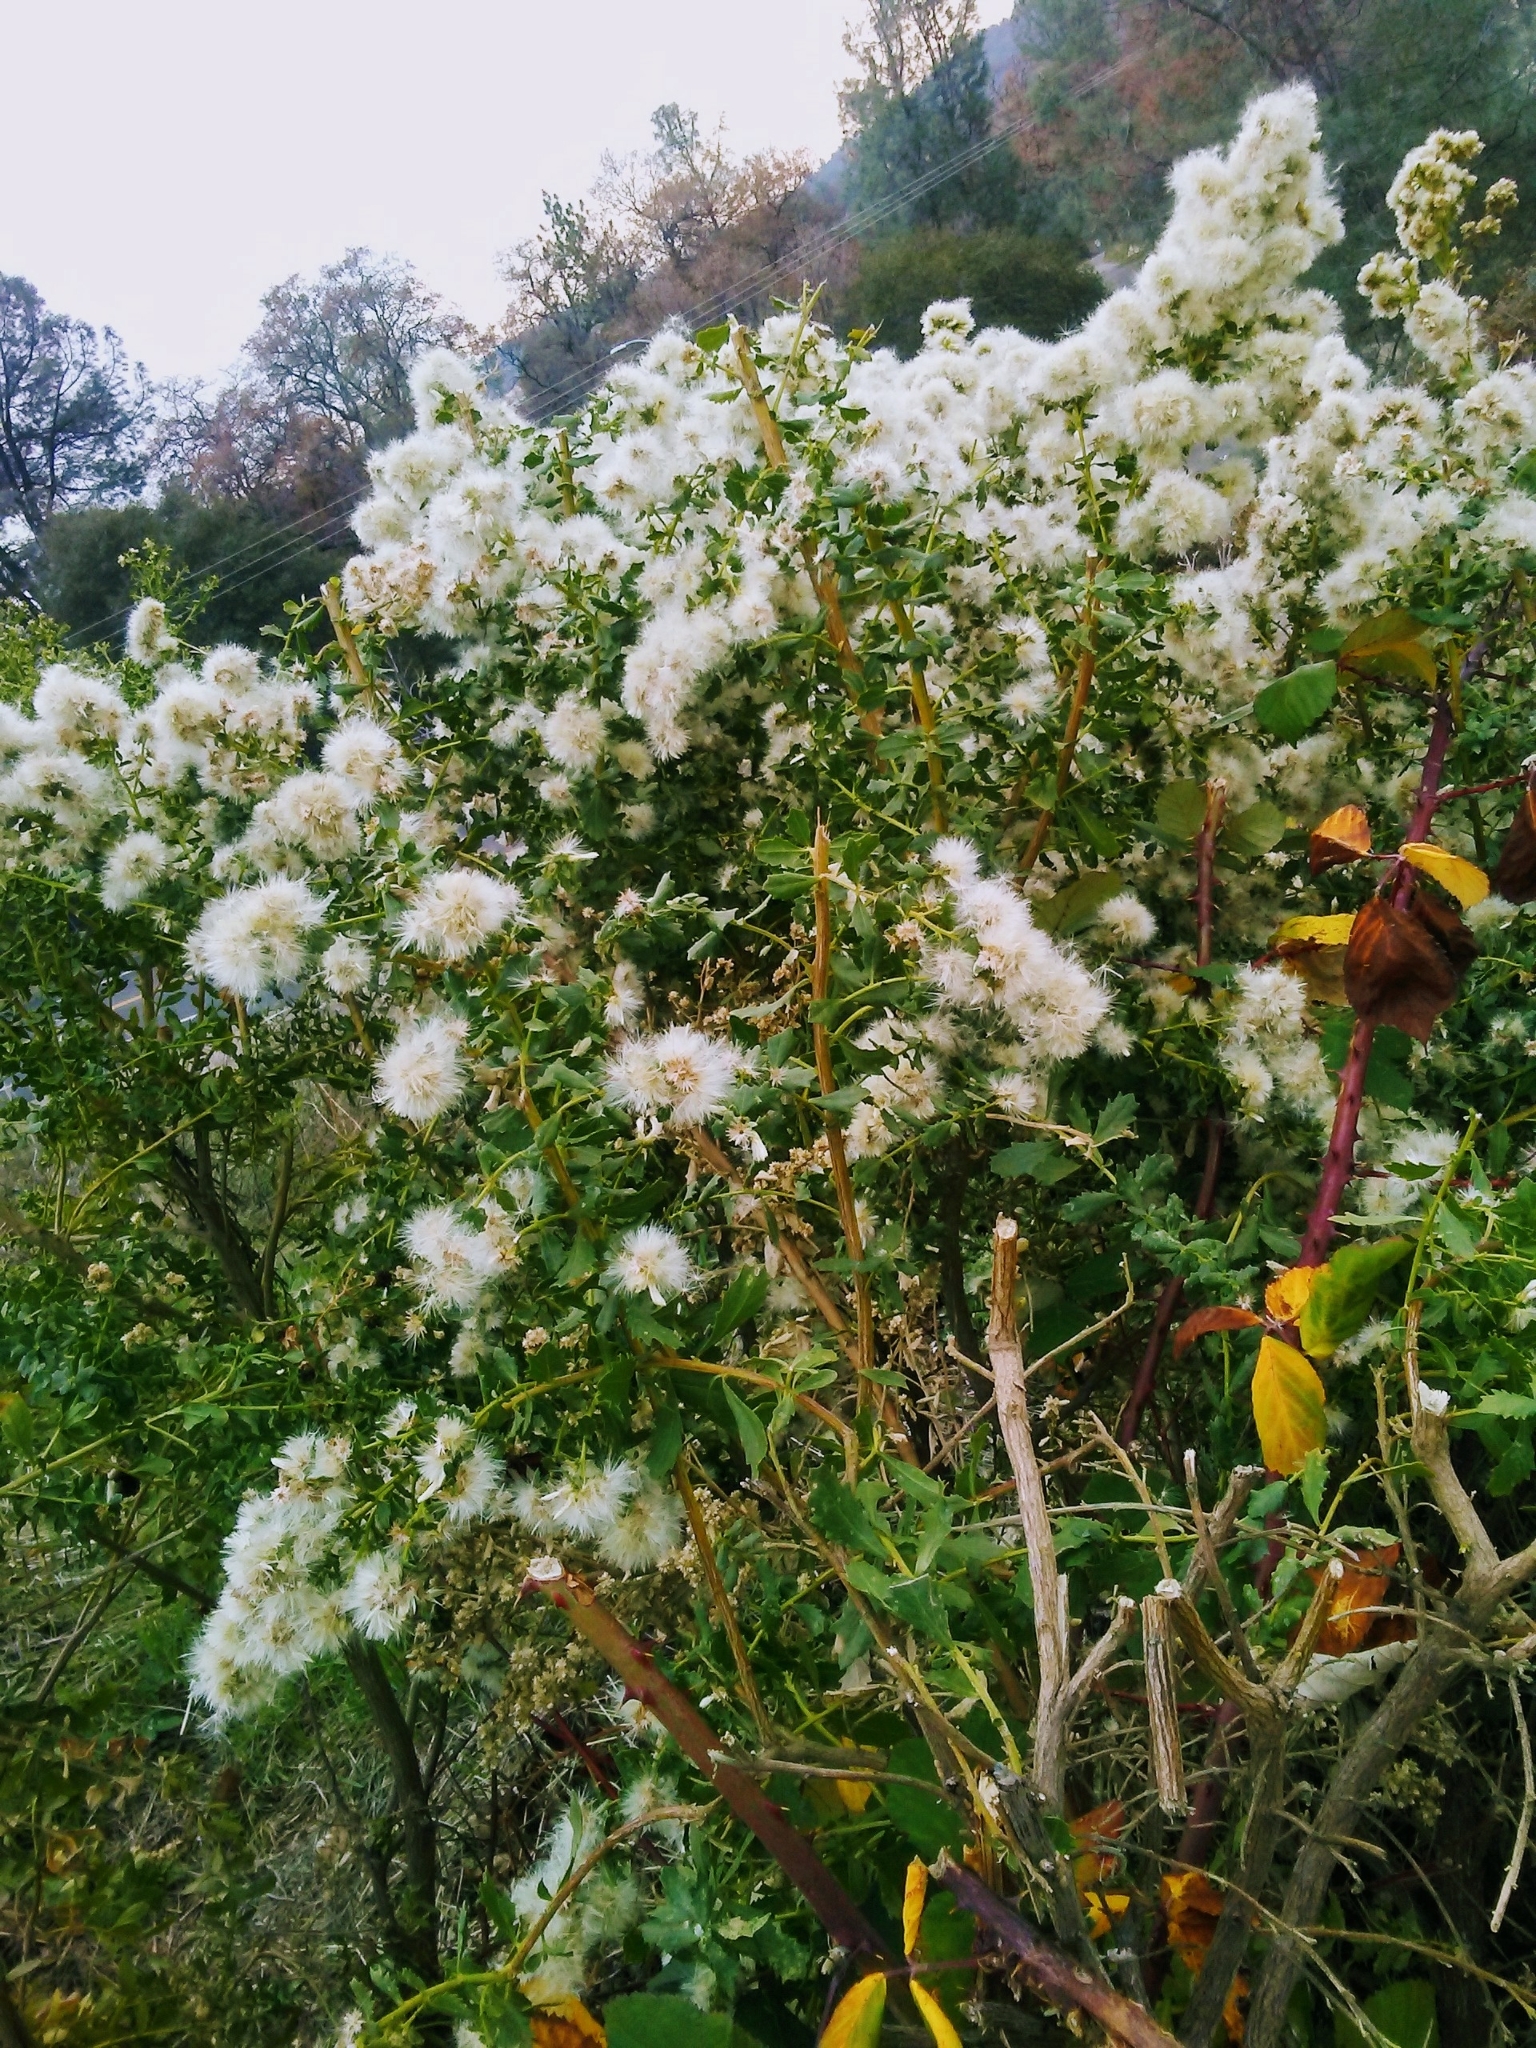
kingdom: Plantae
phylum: Tracheophyta
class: Magnoliopsida
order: Asterales
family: Asteraceae
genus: Baccharis
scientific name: Baccharis pilularis
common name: Coyotebrush
